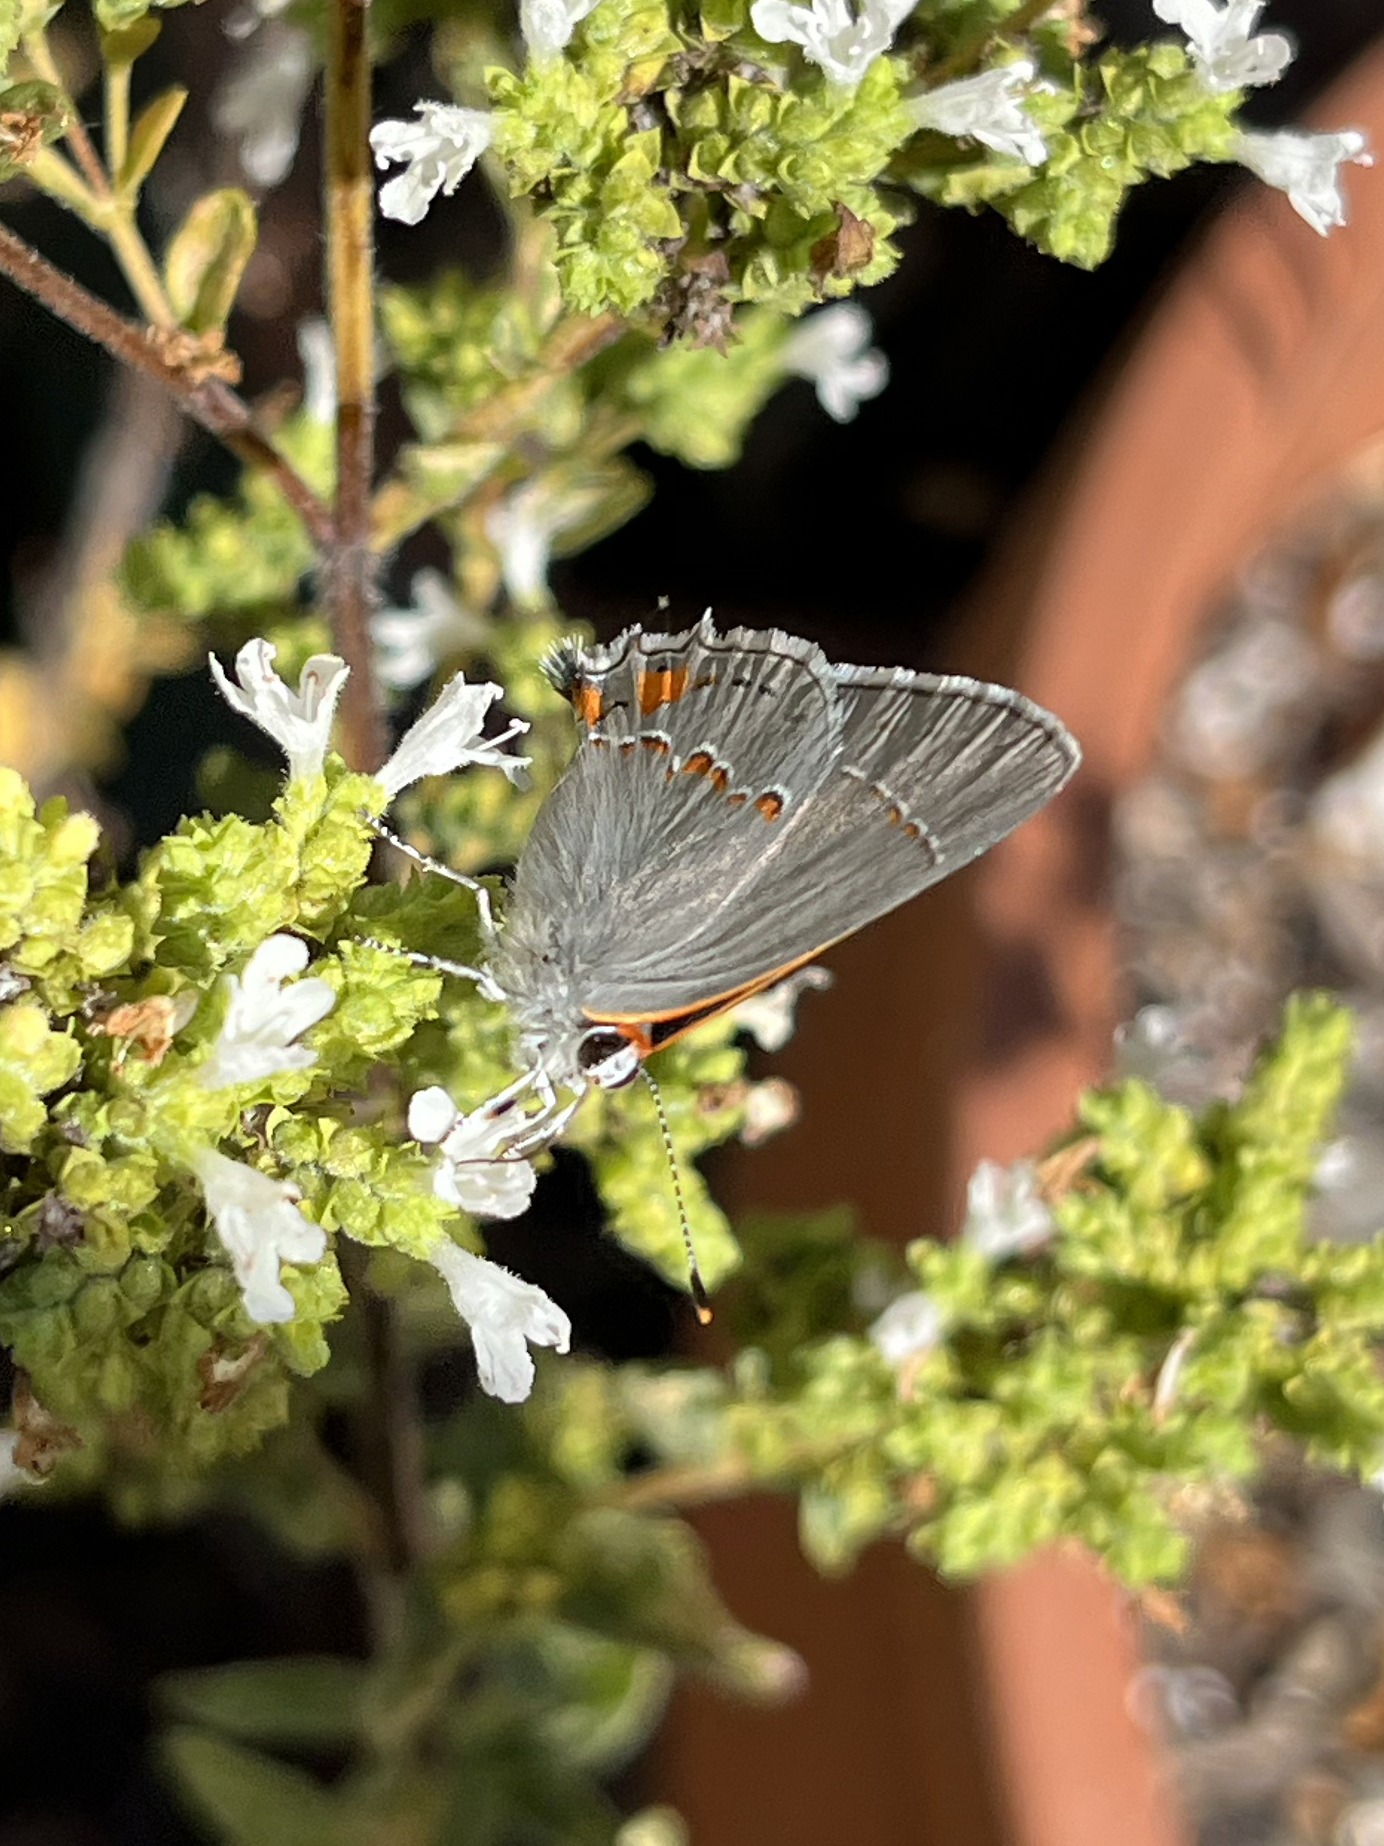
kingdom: Animalia
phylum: Arthropoda
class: Insecta
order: Lepidoptera
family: Lycaenidae
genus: Strymon
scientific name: Strymon melinus
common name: Gray hairstreak
